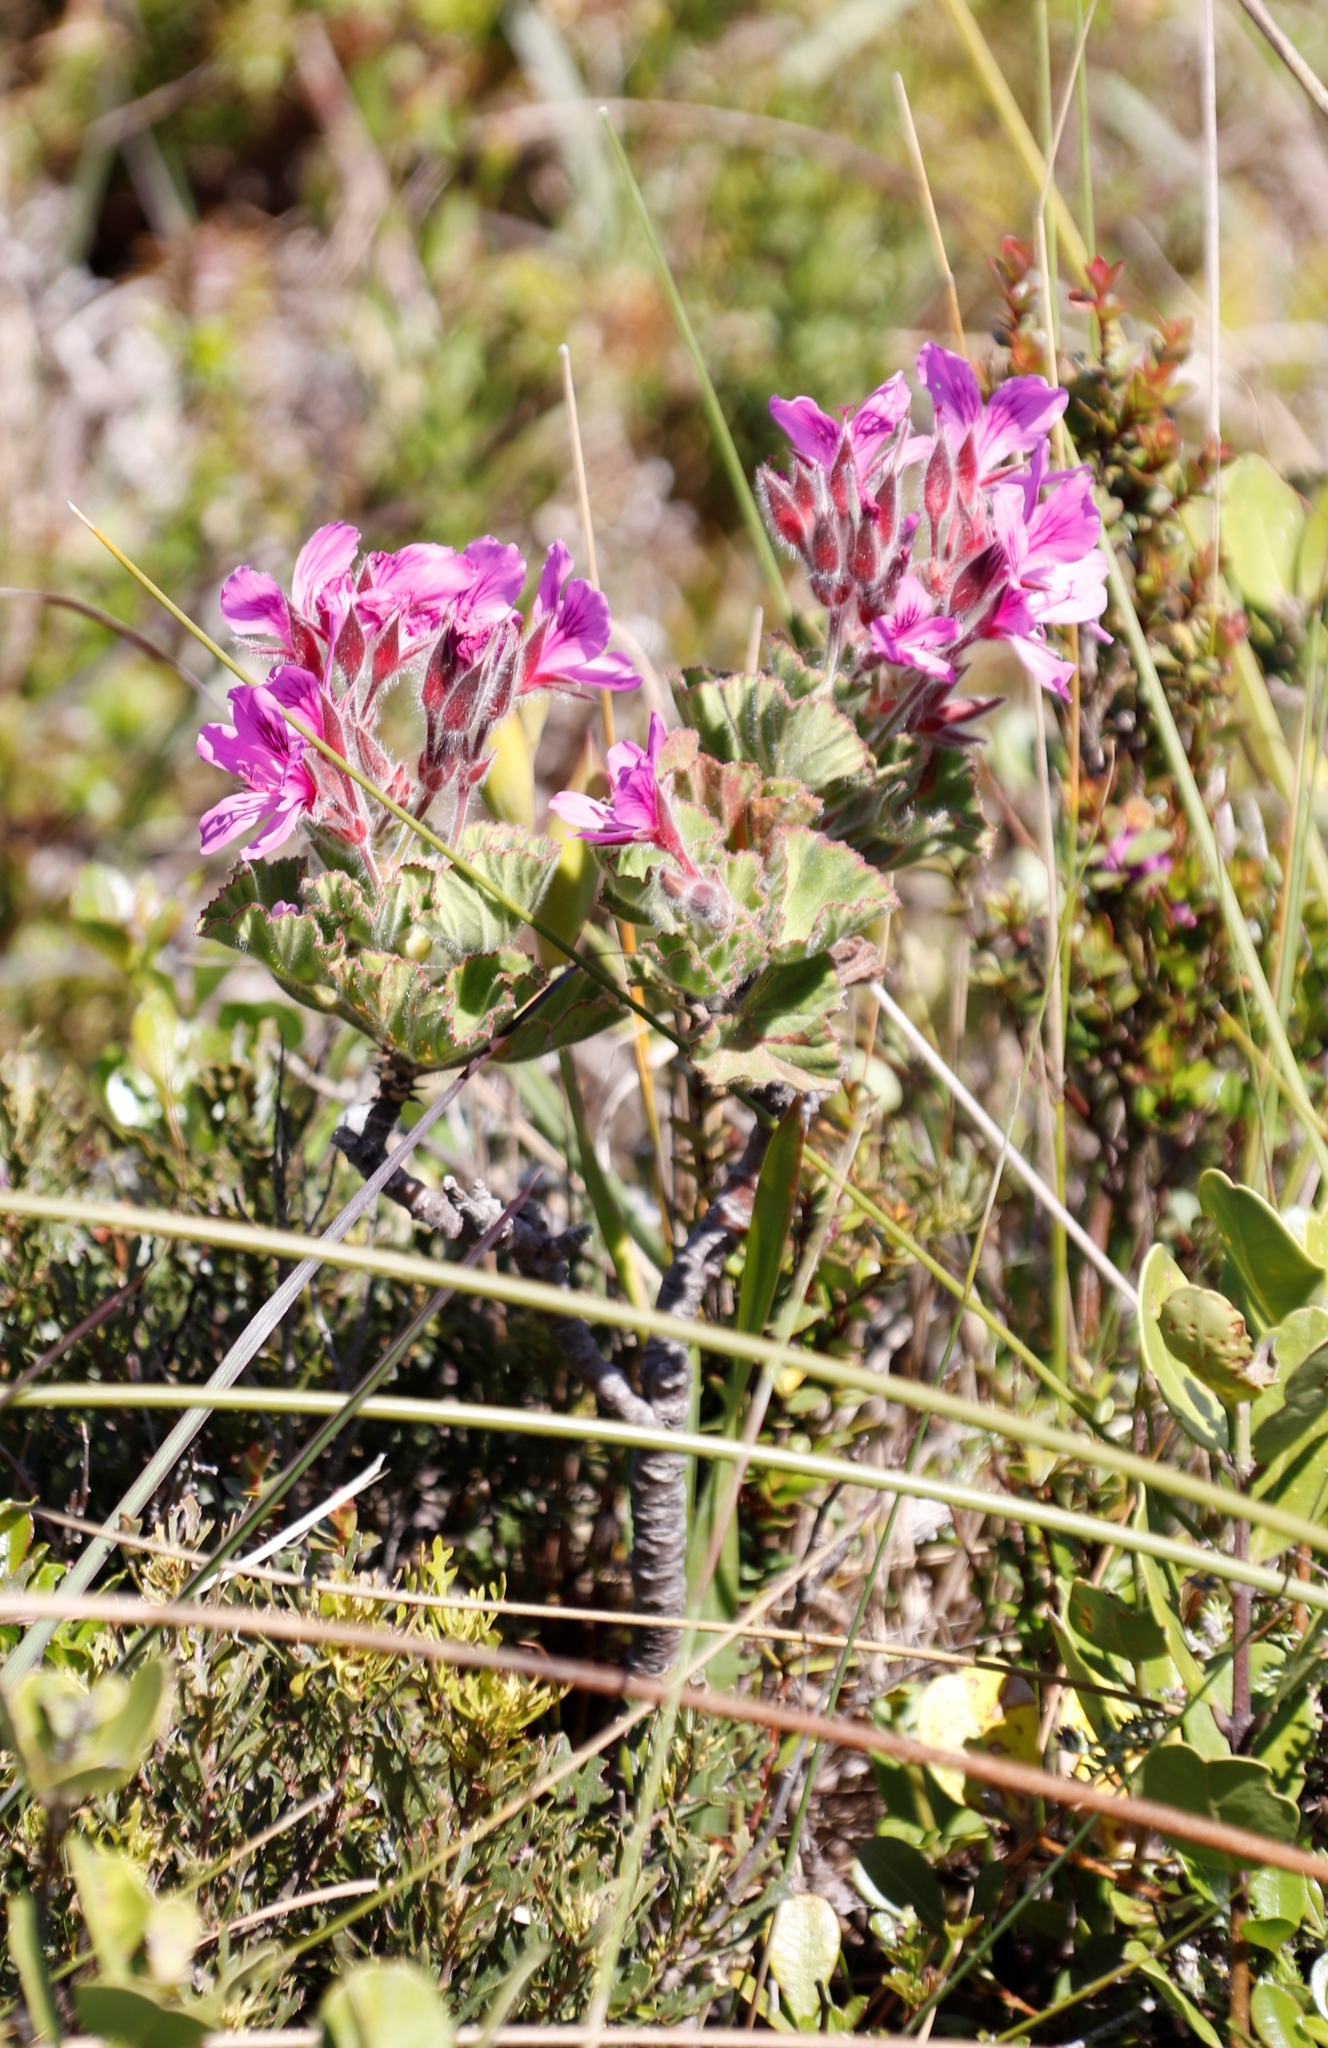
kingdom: Plantae
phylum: Tracheophyta
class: Magnoliopsida
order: Geraniales
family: Geraniaceae
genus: Pelargonium
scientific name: Pelargonium cucullatum
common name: Tree pelargonium
